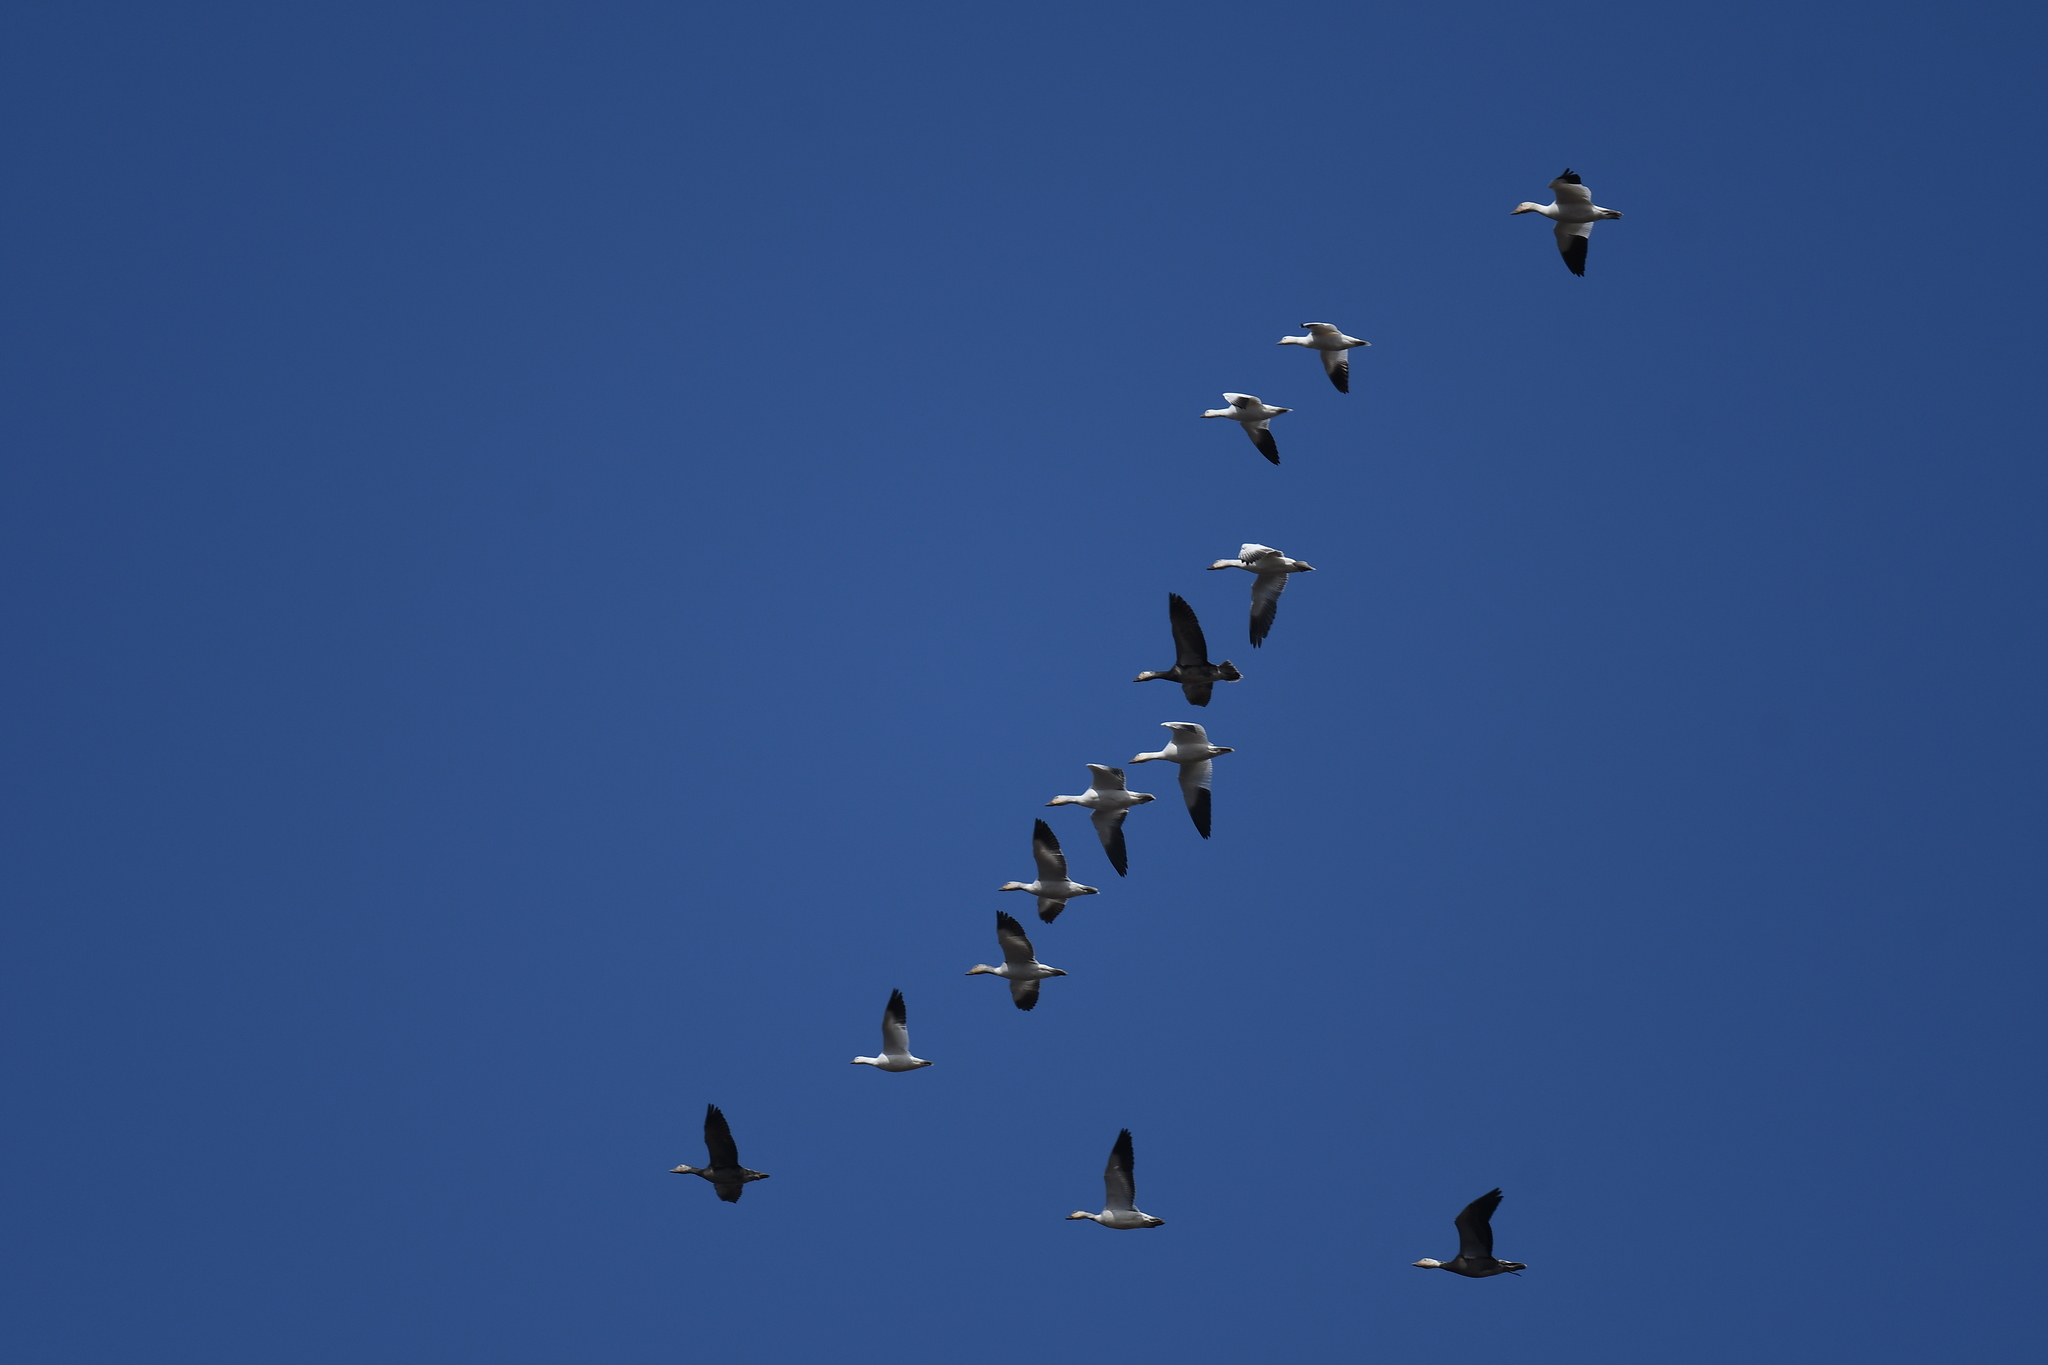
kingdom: Animalia
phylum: Chordata
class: Aves
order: Anseriformes
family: Anatidae
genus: Anser
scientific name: Anser caerulescens
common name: Snow goose
